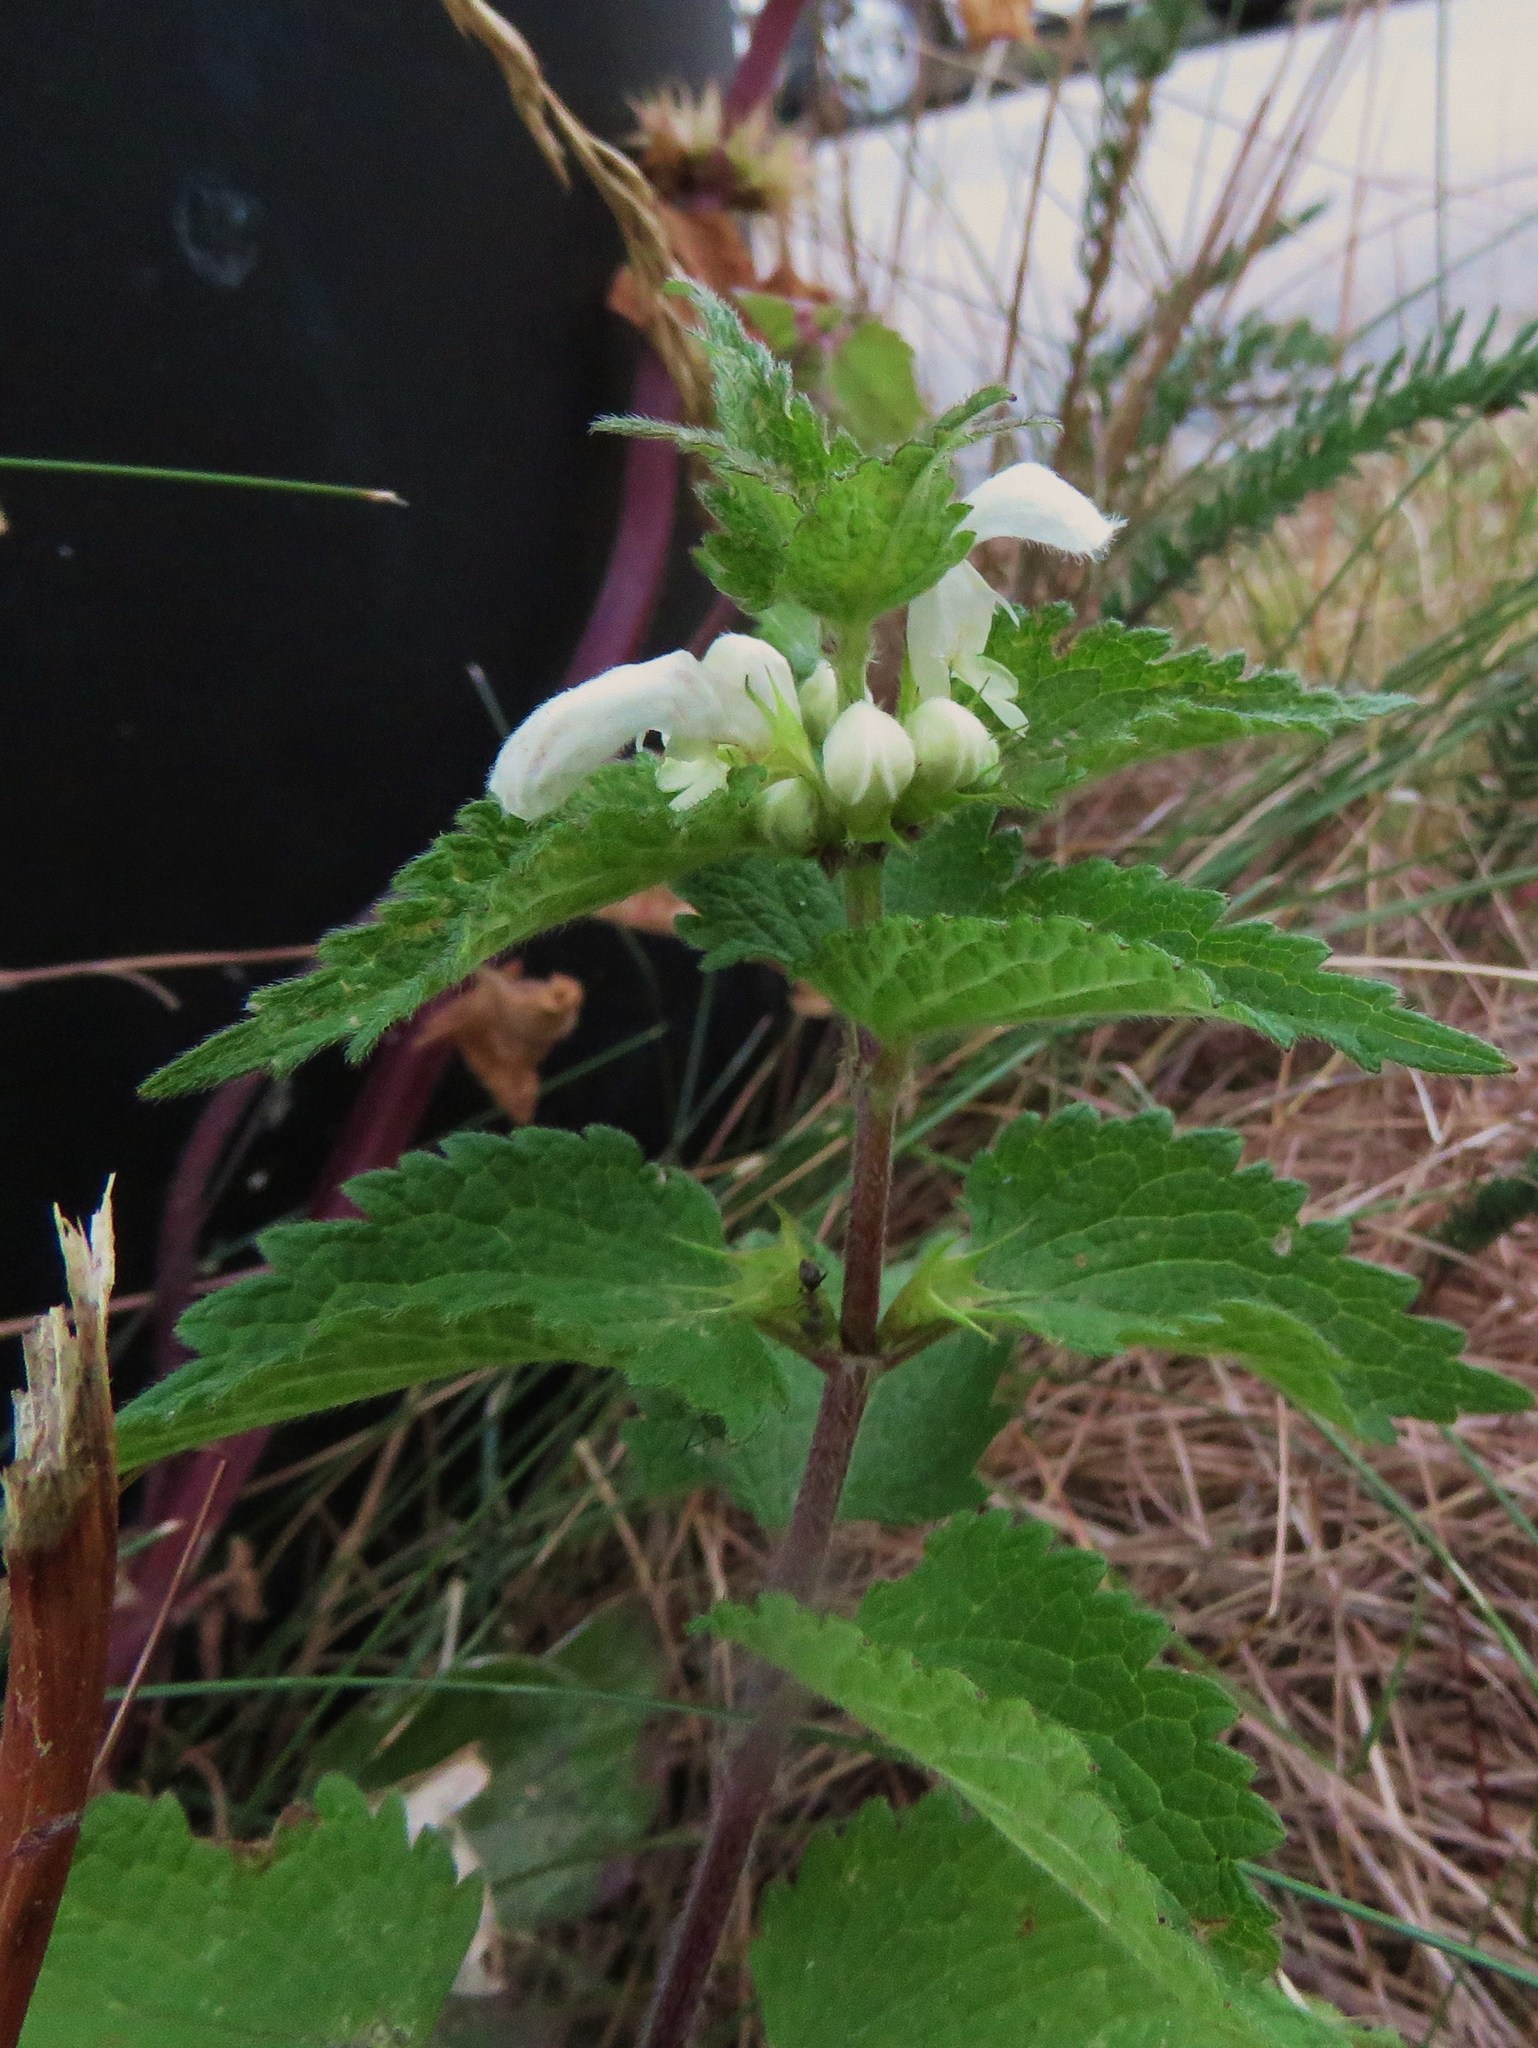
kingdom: Plantae
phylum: Tracheophyta
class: Magnoliopsida
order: Lamiales
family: Lamiaceae
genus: Lamium
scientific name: Lamium album
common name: White dead-nettle
